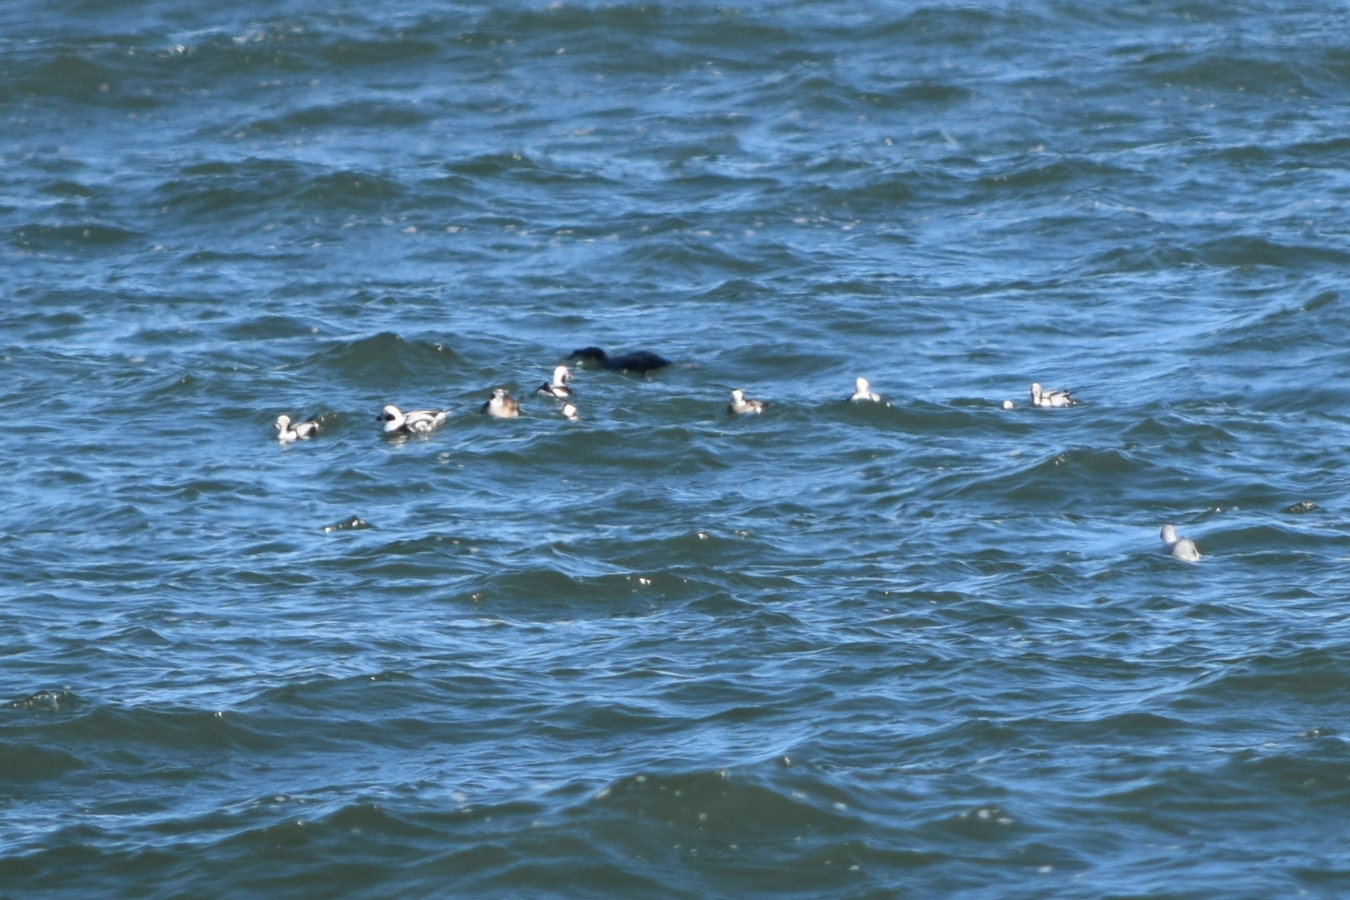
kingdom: Animalia
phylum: Chordata
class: Aves
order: Anseriformes
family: Anatidae
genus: Clangula
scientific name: Clangula hyemalis
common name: Long-tailed duck
